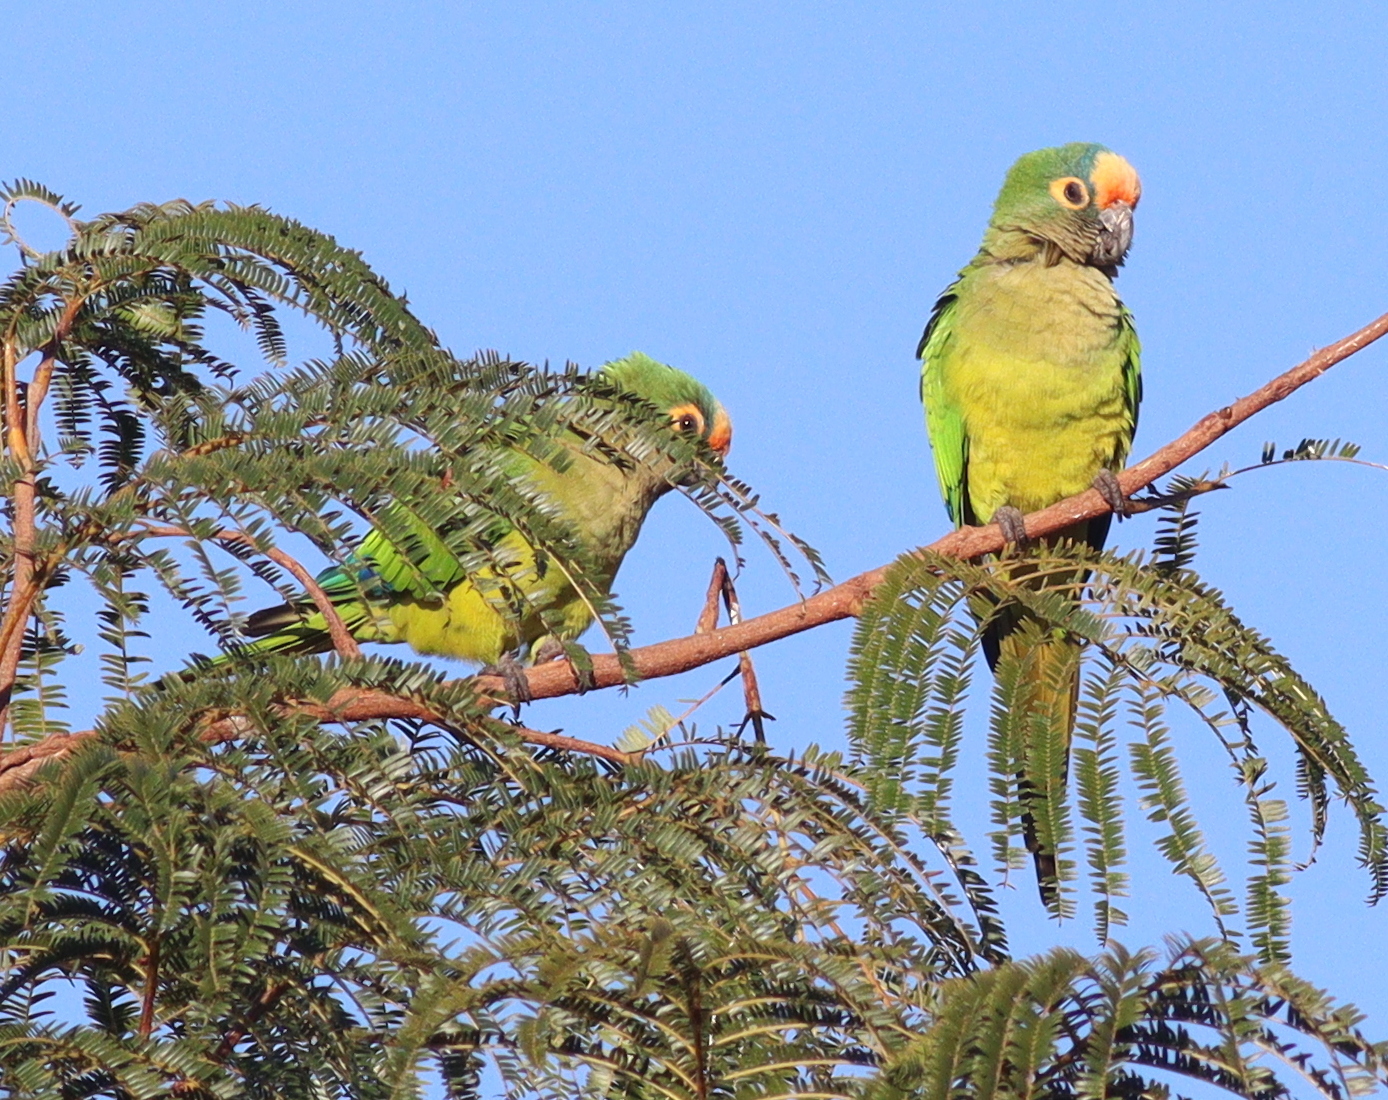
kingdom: Animalia
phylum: Chordata
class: Aves
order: Psittaciformes
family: Psittacidae
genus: Aratinga
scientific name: Aratinga aurea
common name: Peach-fronted parakeet
